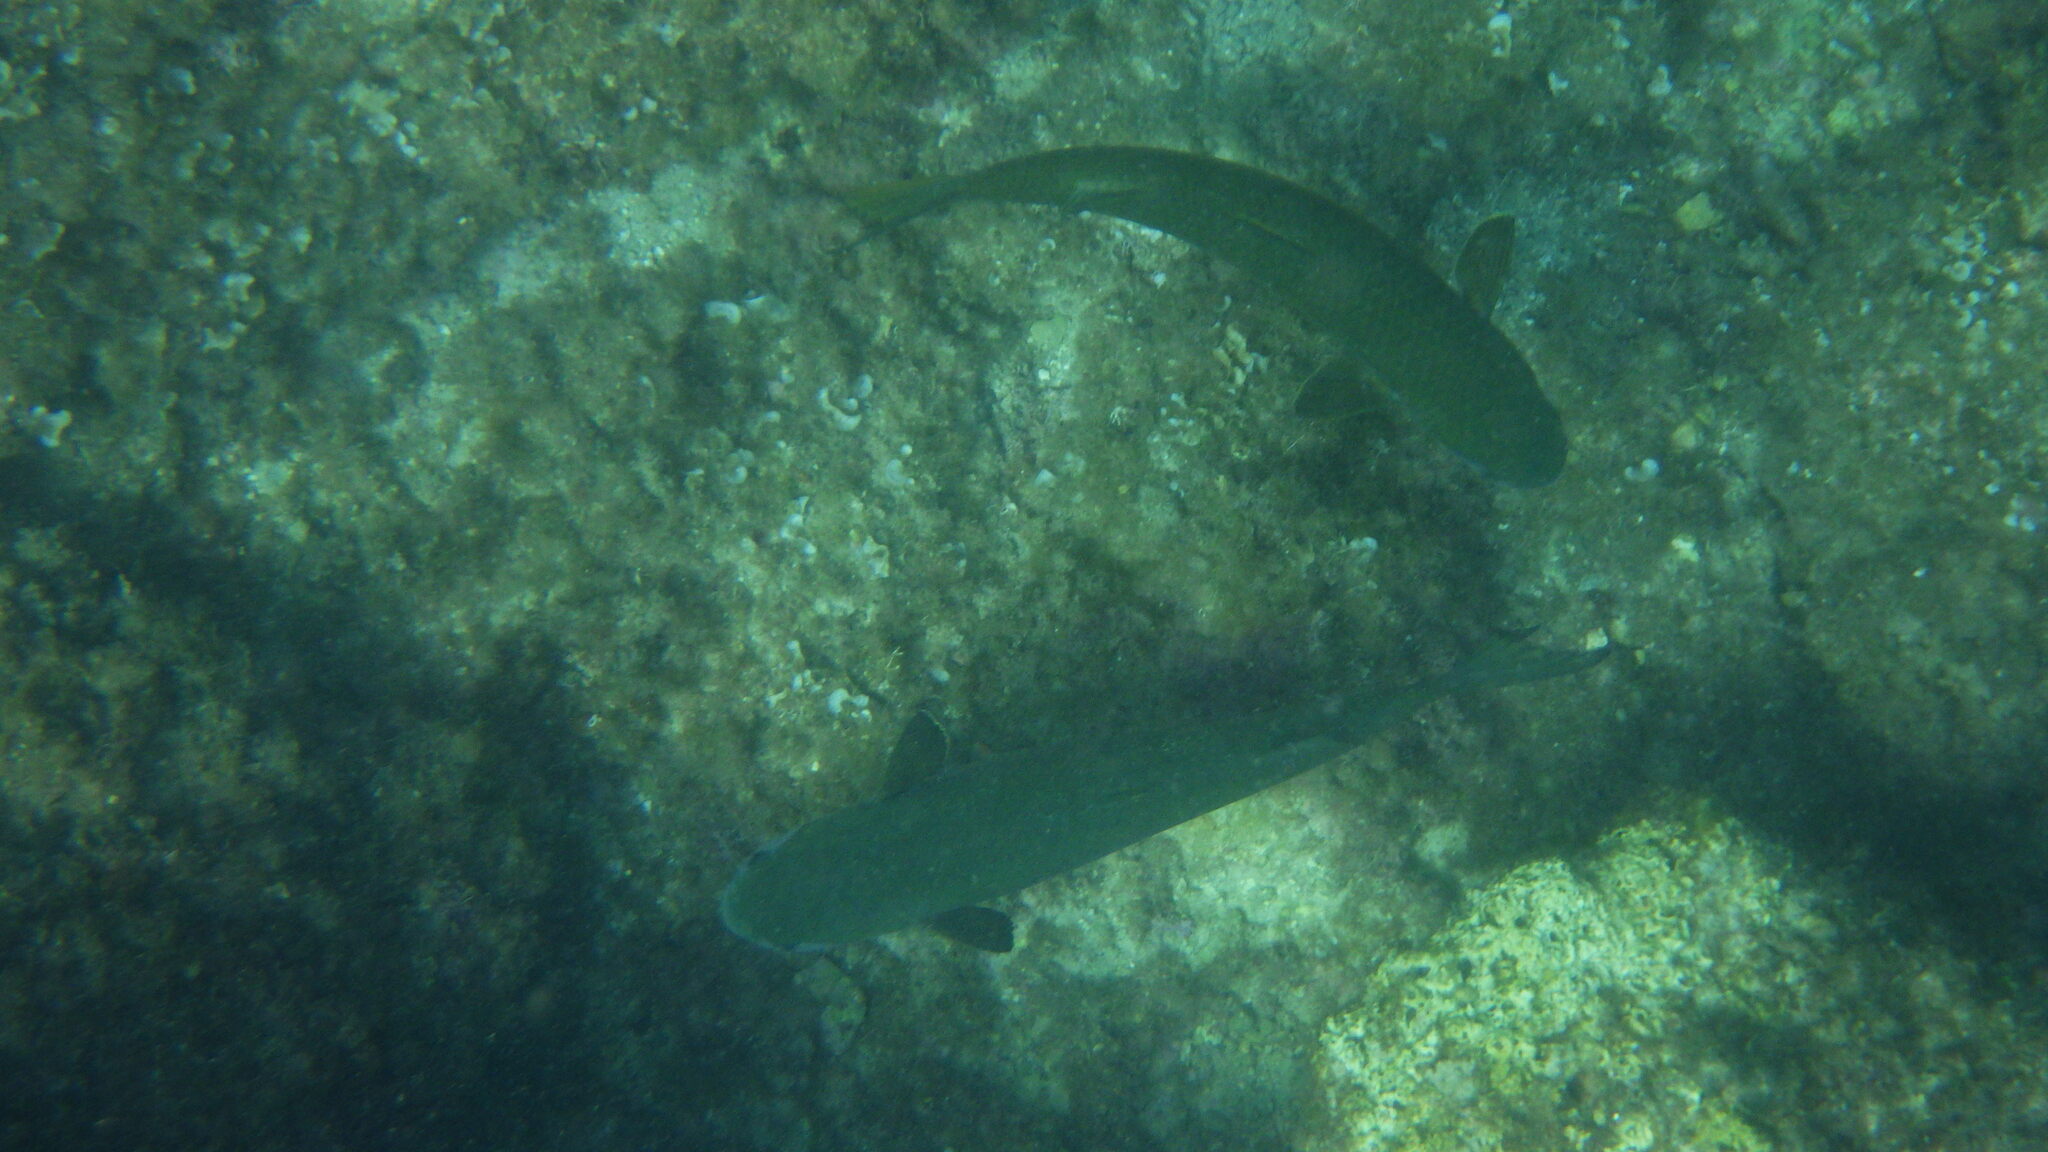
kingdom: Animalia
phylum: Chordata
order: Mugiliformes
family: Mugilidae
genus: Mugil
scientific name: Mugil cephalus
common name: Grey mullet
